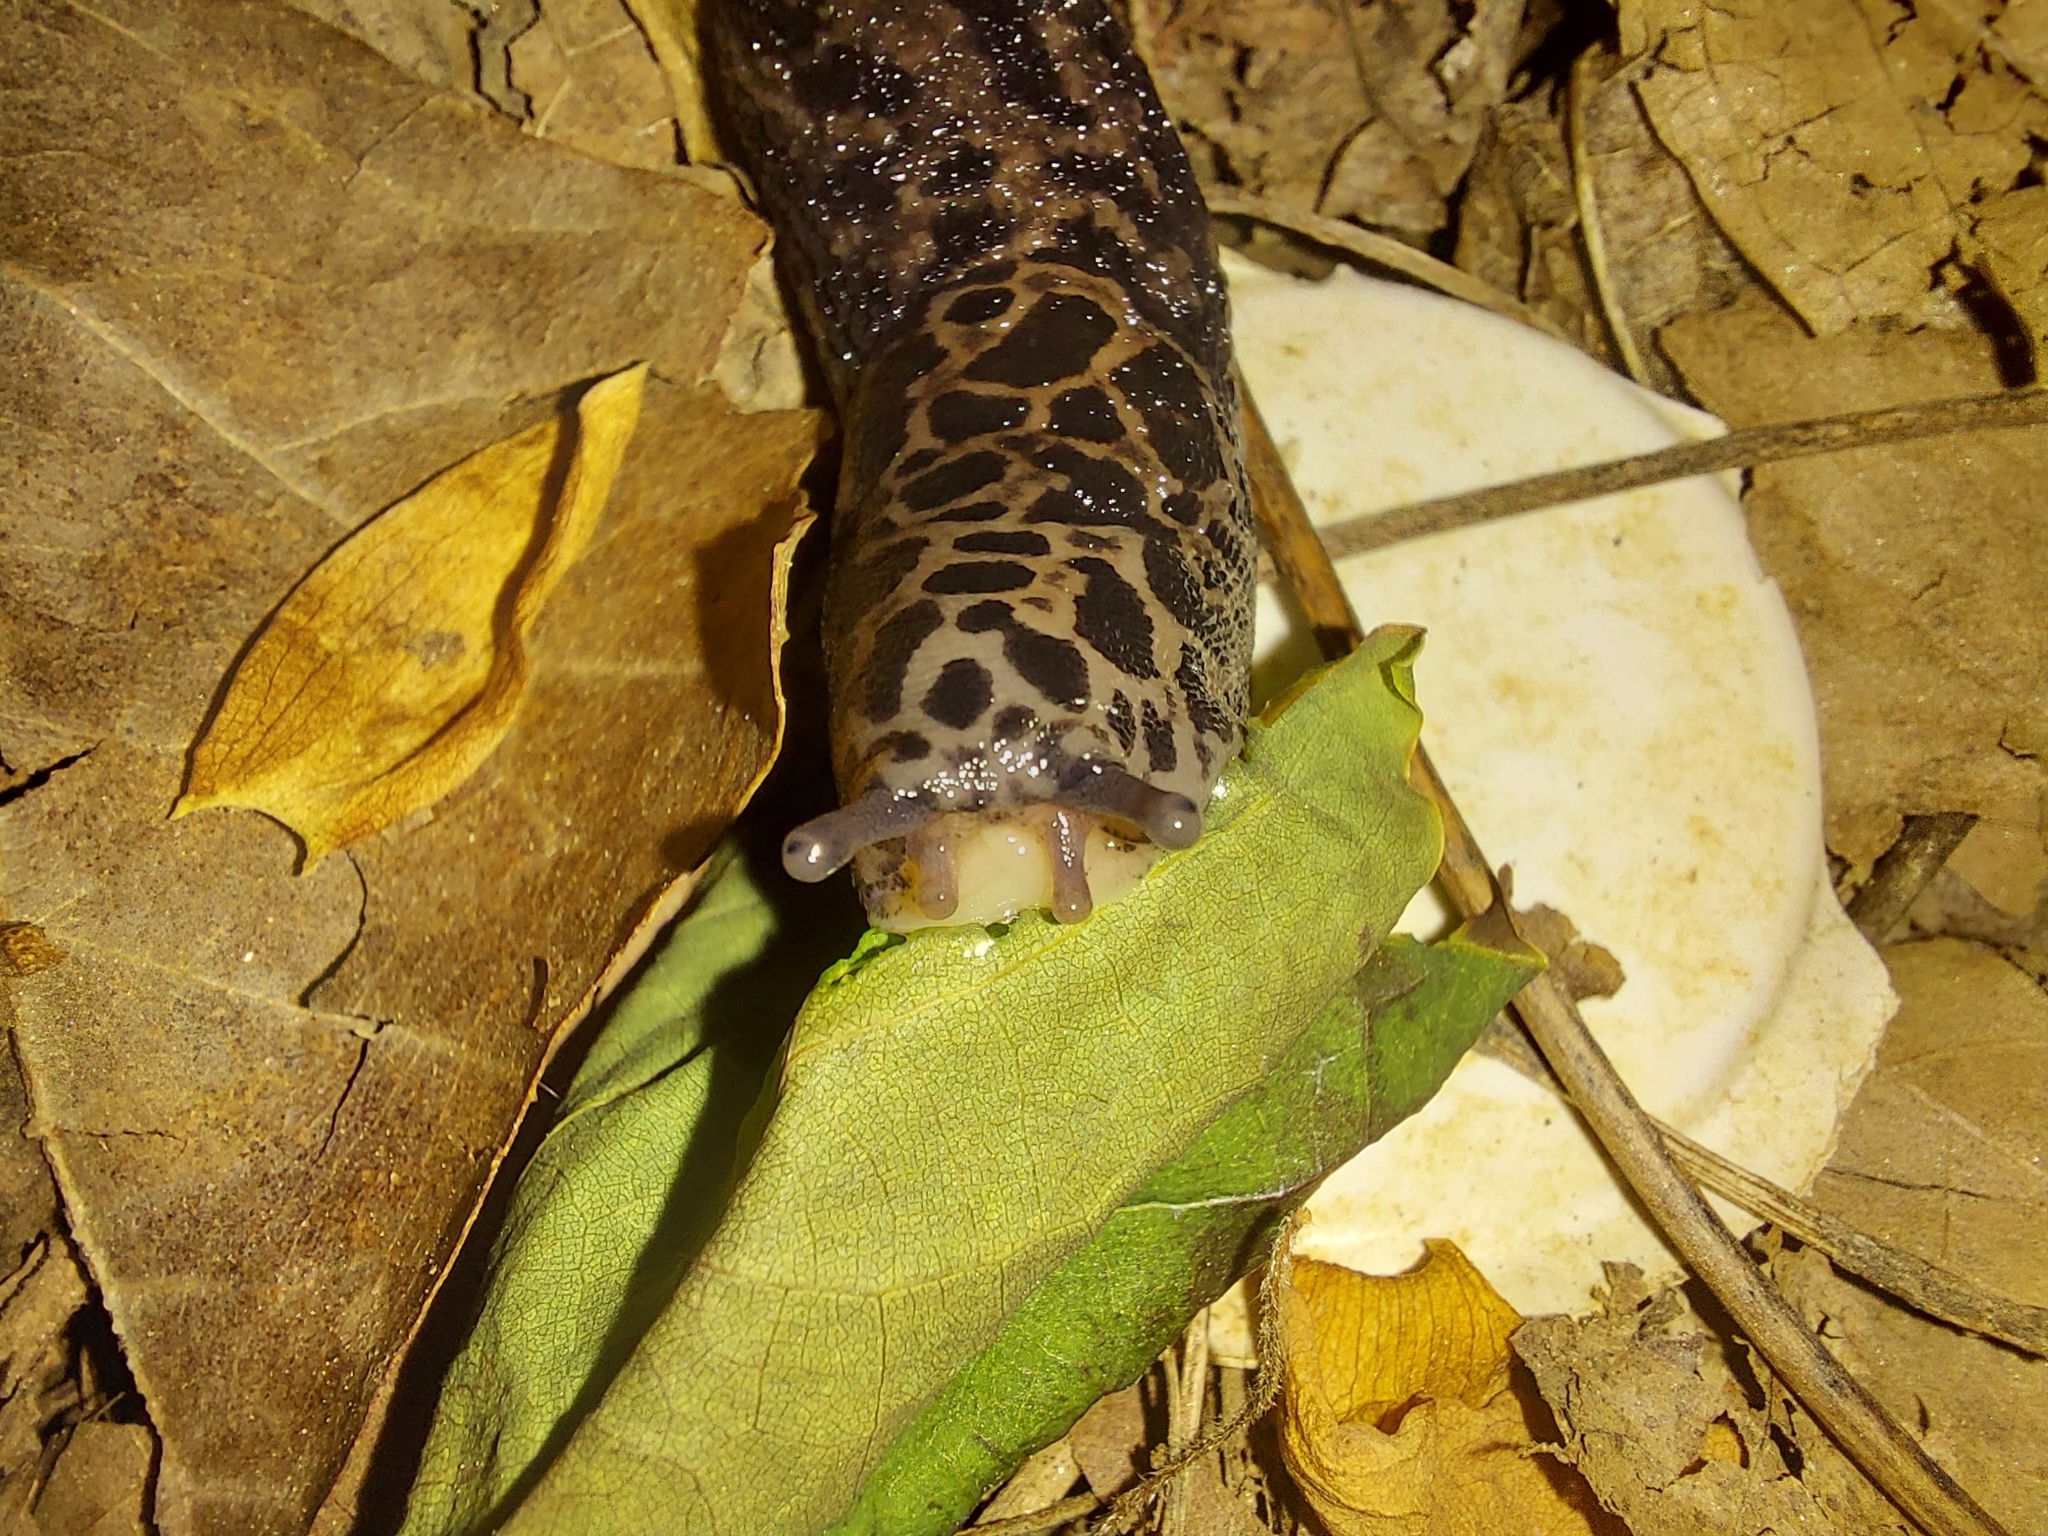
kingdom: Animalia
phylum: Mollusca
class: Gastropoda
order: Stylommatophora
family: Limacidae
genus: Limax
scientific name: Limax maximus
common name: Great grey slug
